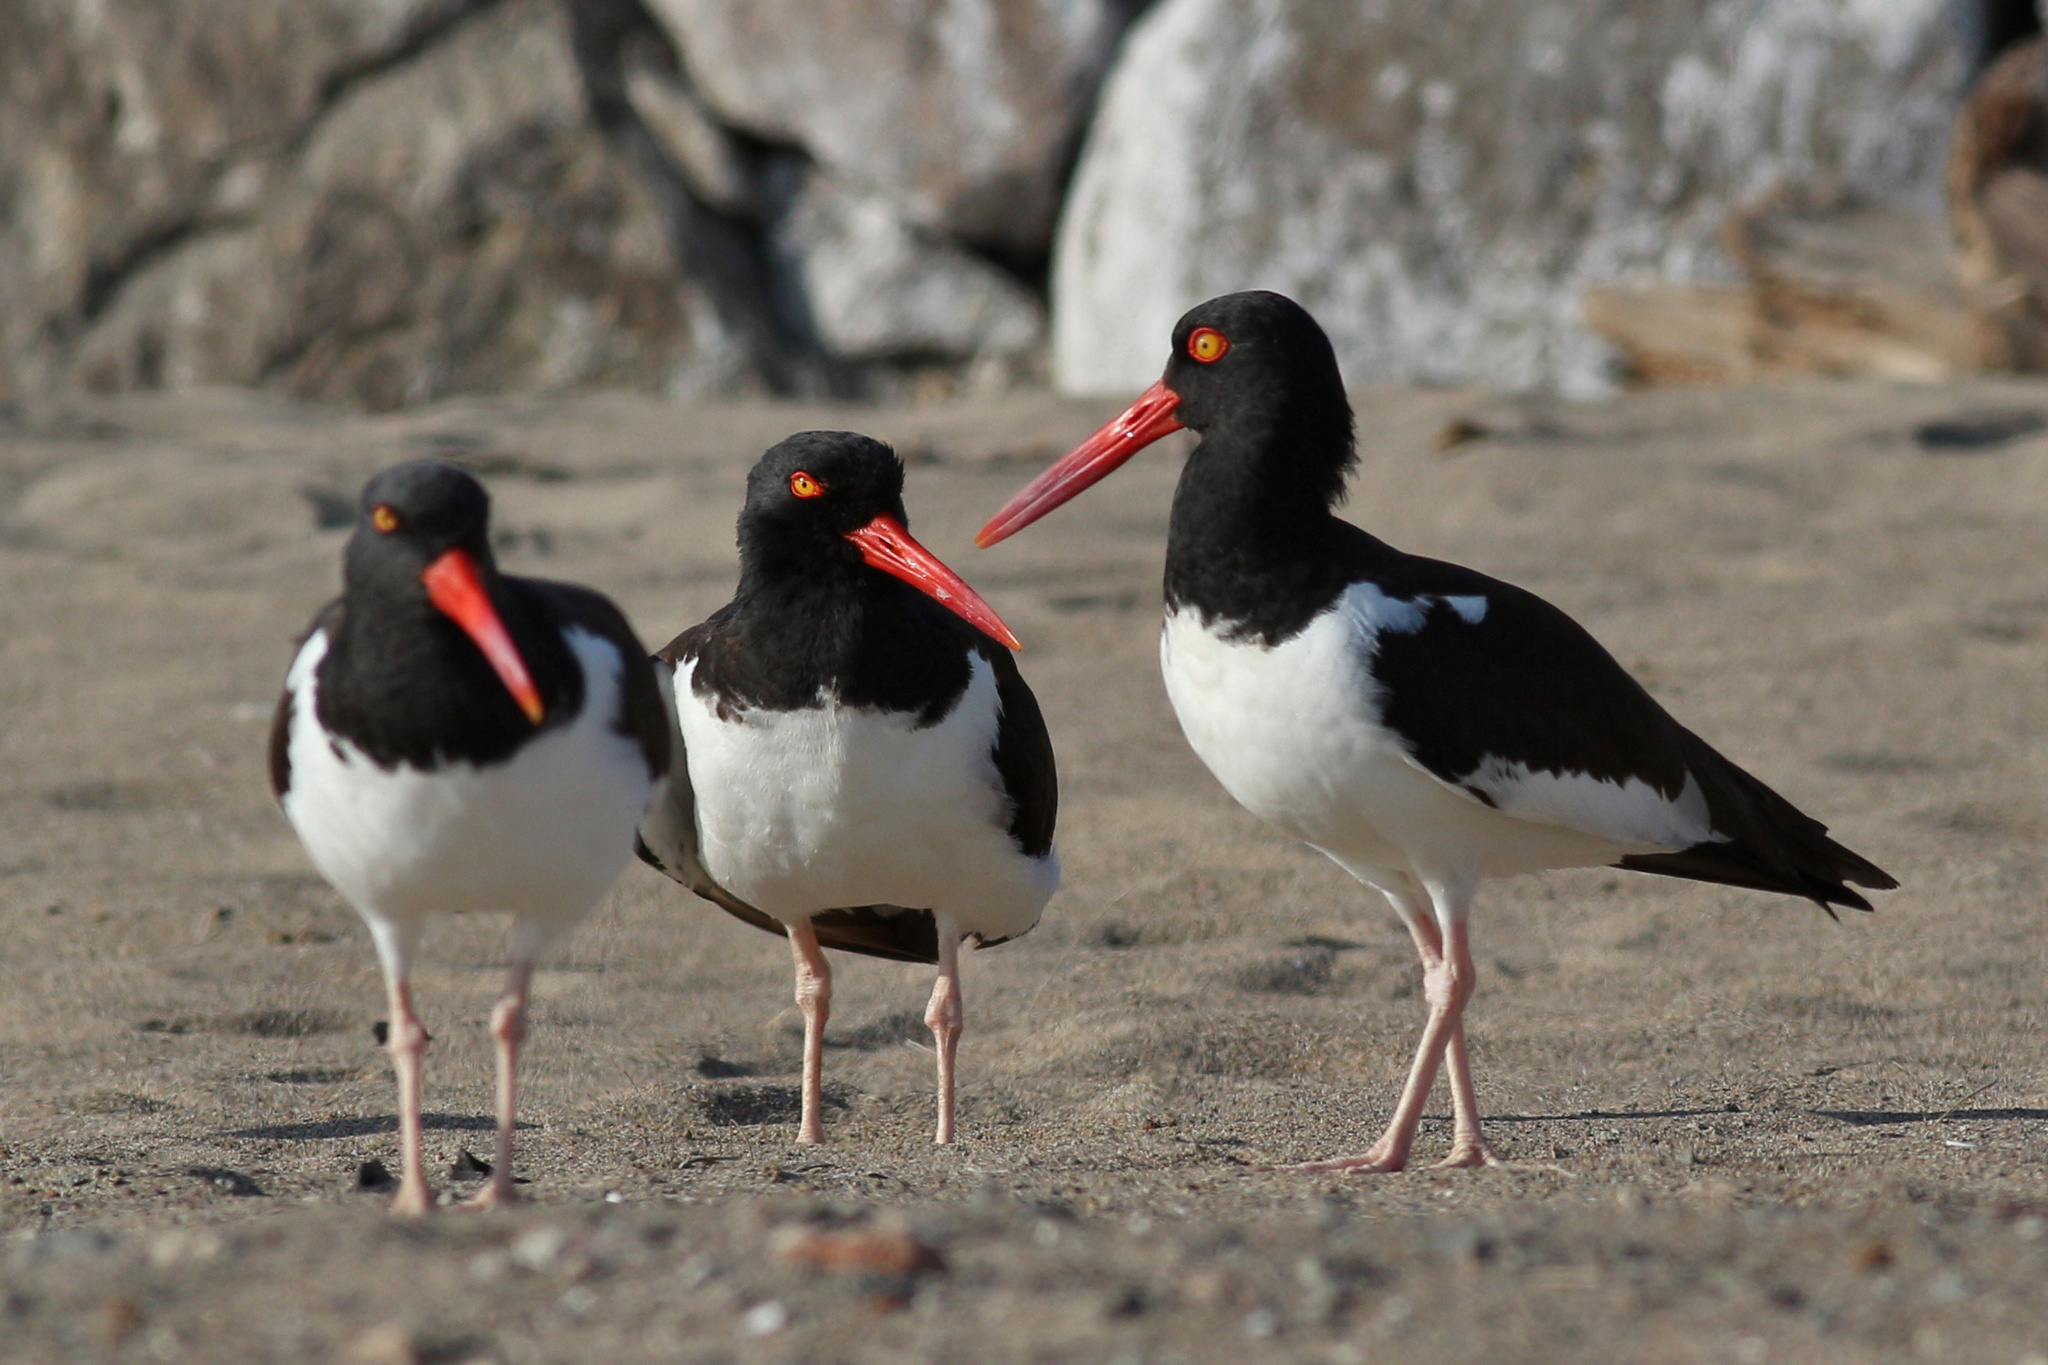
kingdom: Animalia
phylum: Chordata
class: Aves
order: Charadriiformes
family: Haematopodidae
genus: Haematopus
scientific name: Haematopus palliatus
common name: American oystercatcher
